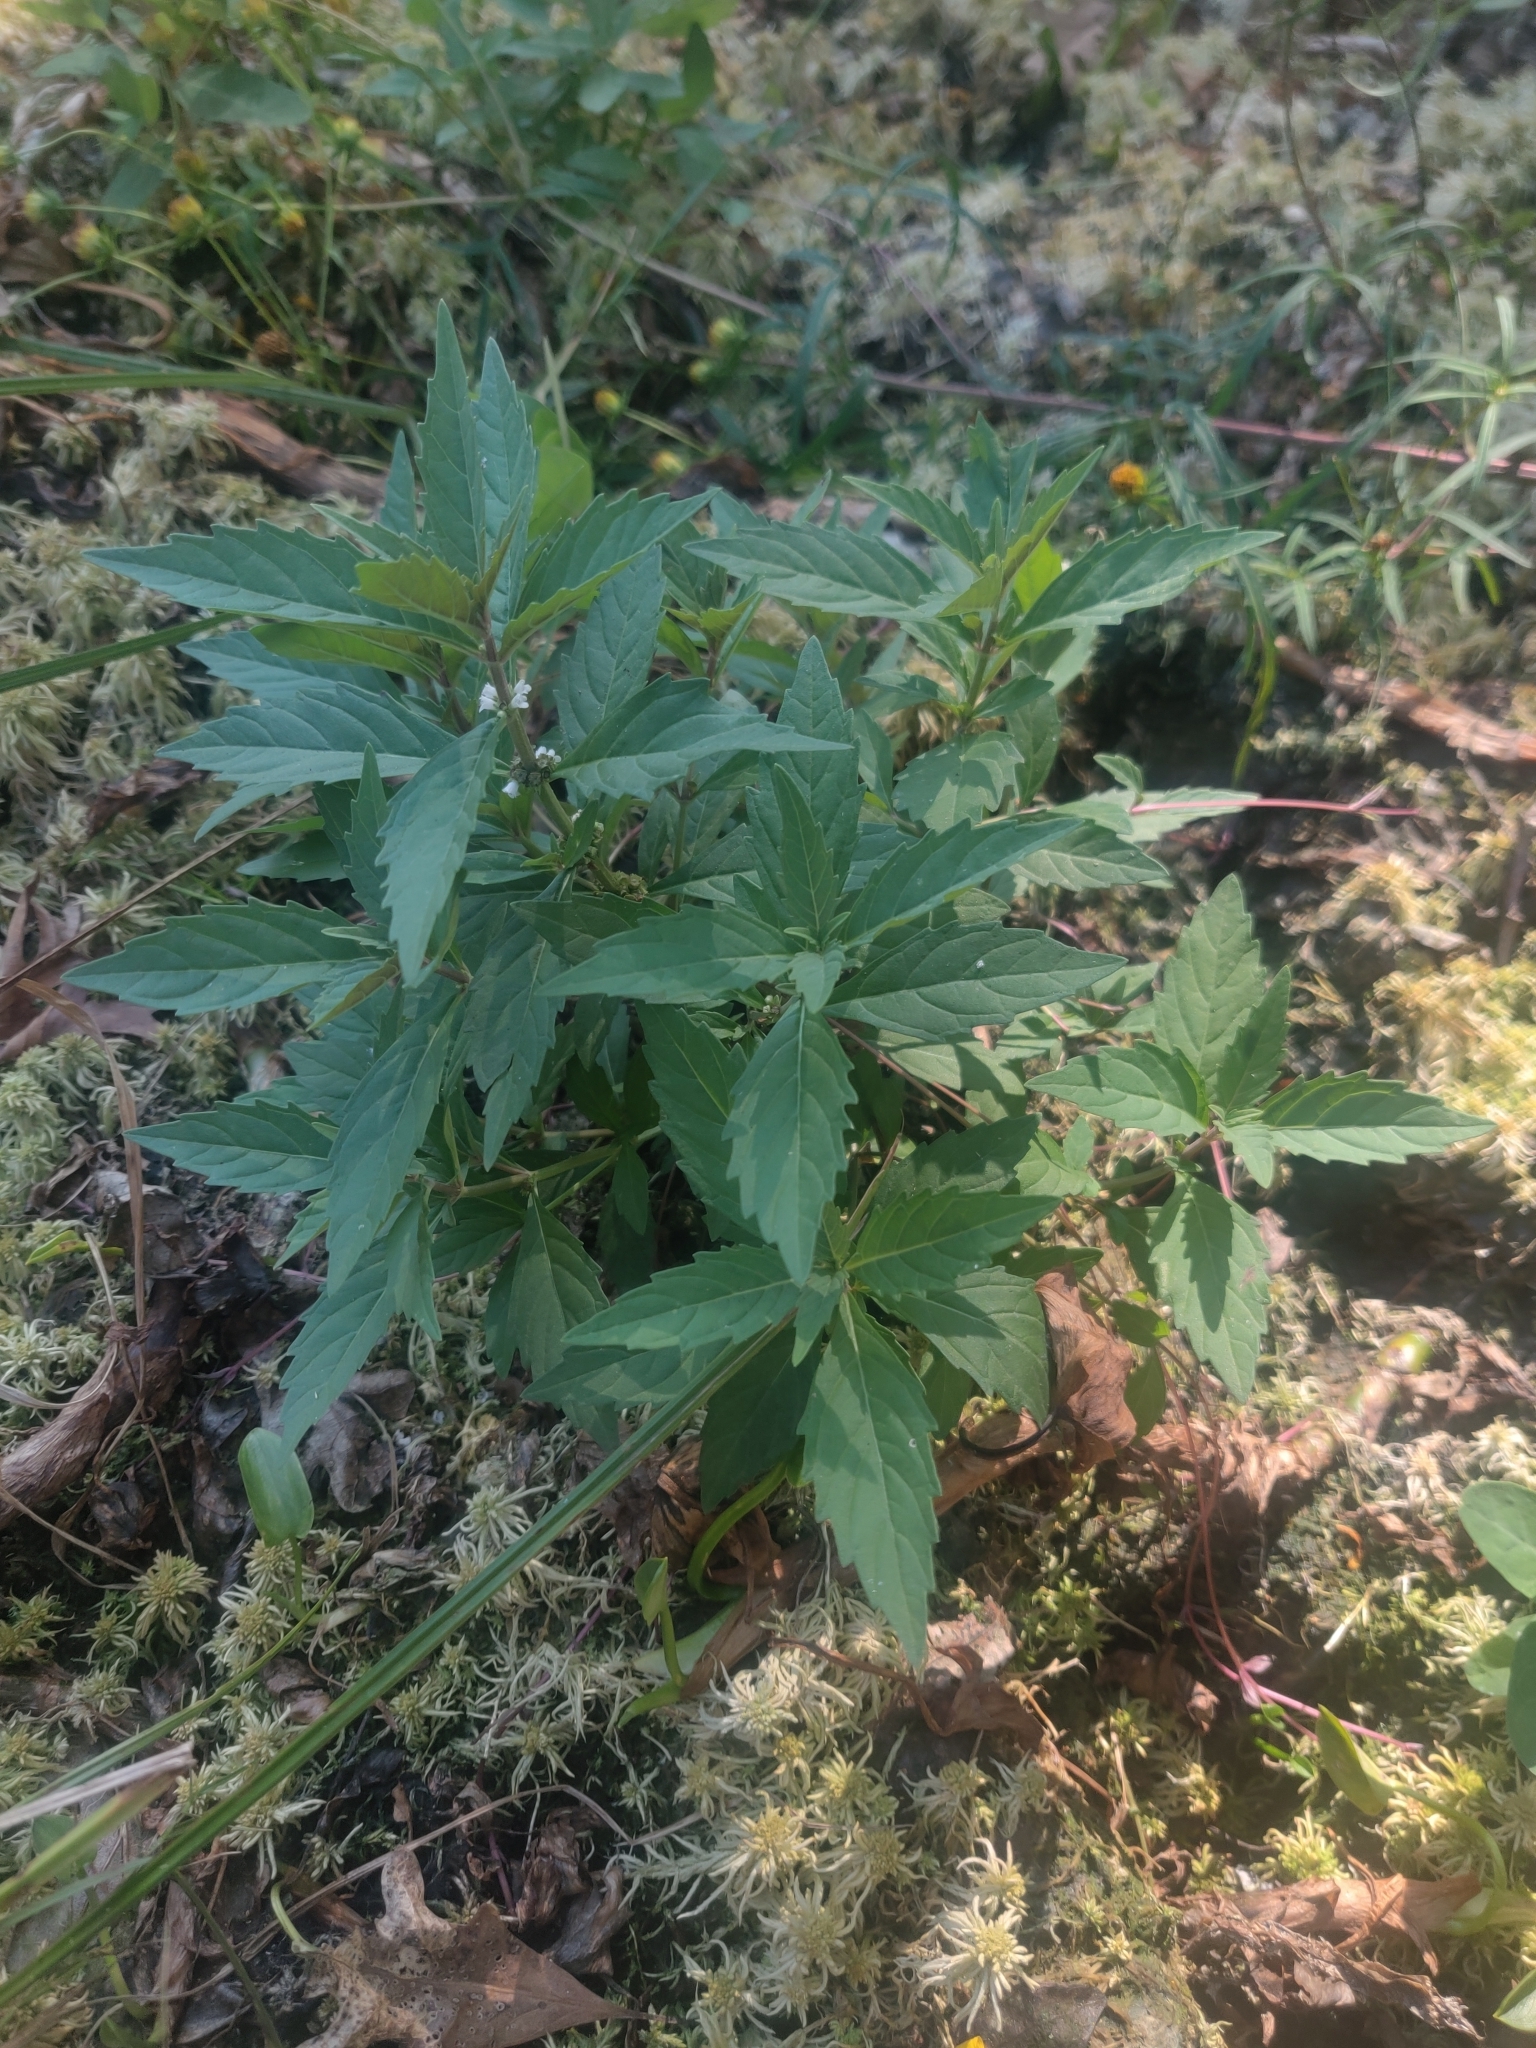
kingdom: Plantae
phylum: Tracheophyta
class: Magnoliopsida
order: Lamiales
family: Lamiaceae
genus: Lycopus
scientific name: Lycopus uniflorus
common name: Northern bugleweed
